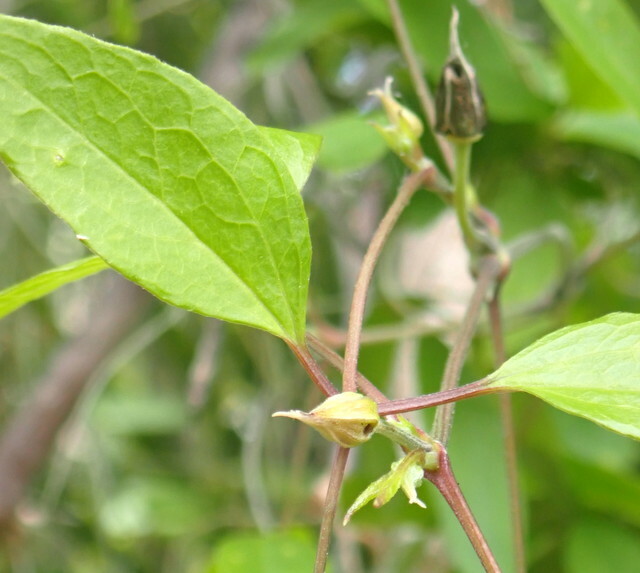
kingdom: Plantae
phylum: Tracheophyta
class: Magnoliopsida
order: Ranunculales
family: Ranunculaceae
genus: Clematis
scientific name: Clematis crispa
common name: Curly clematis
